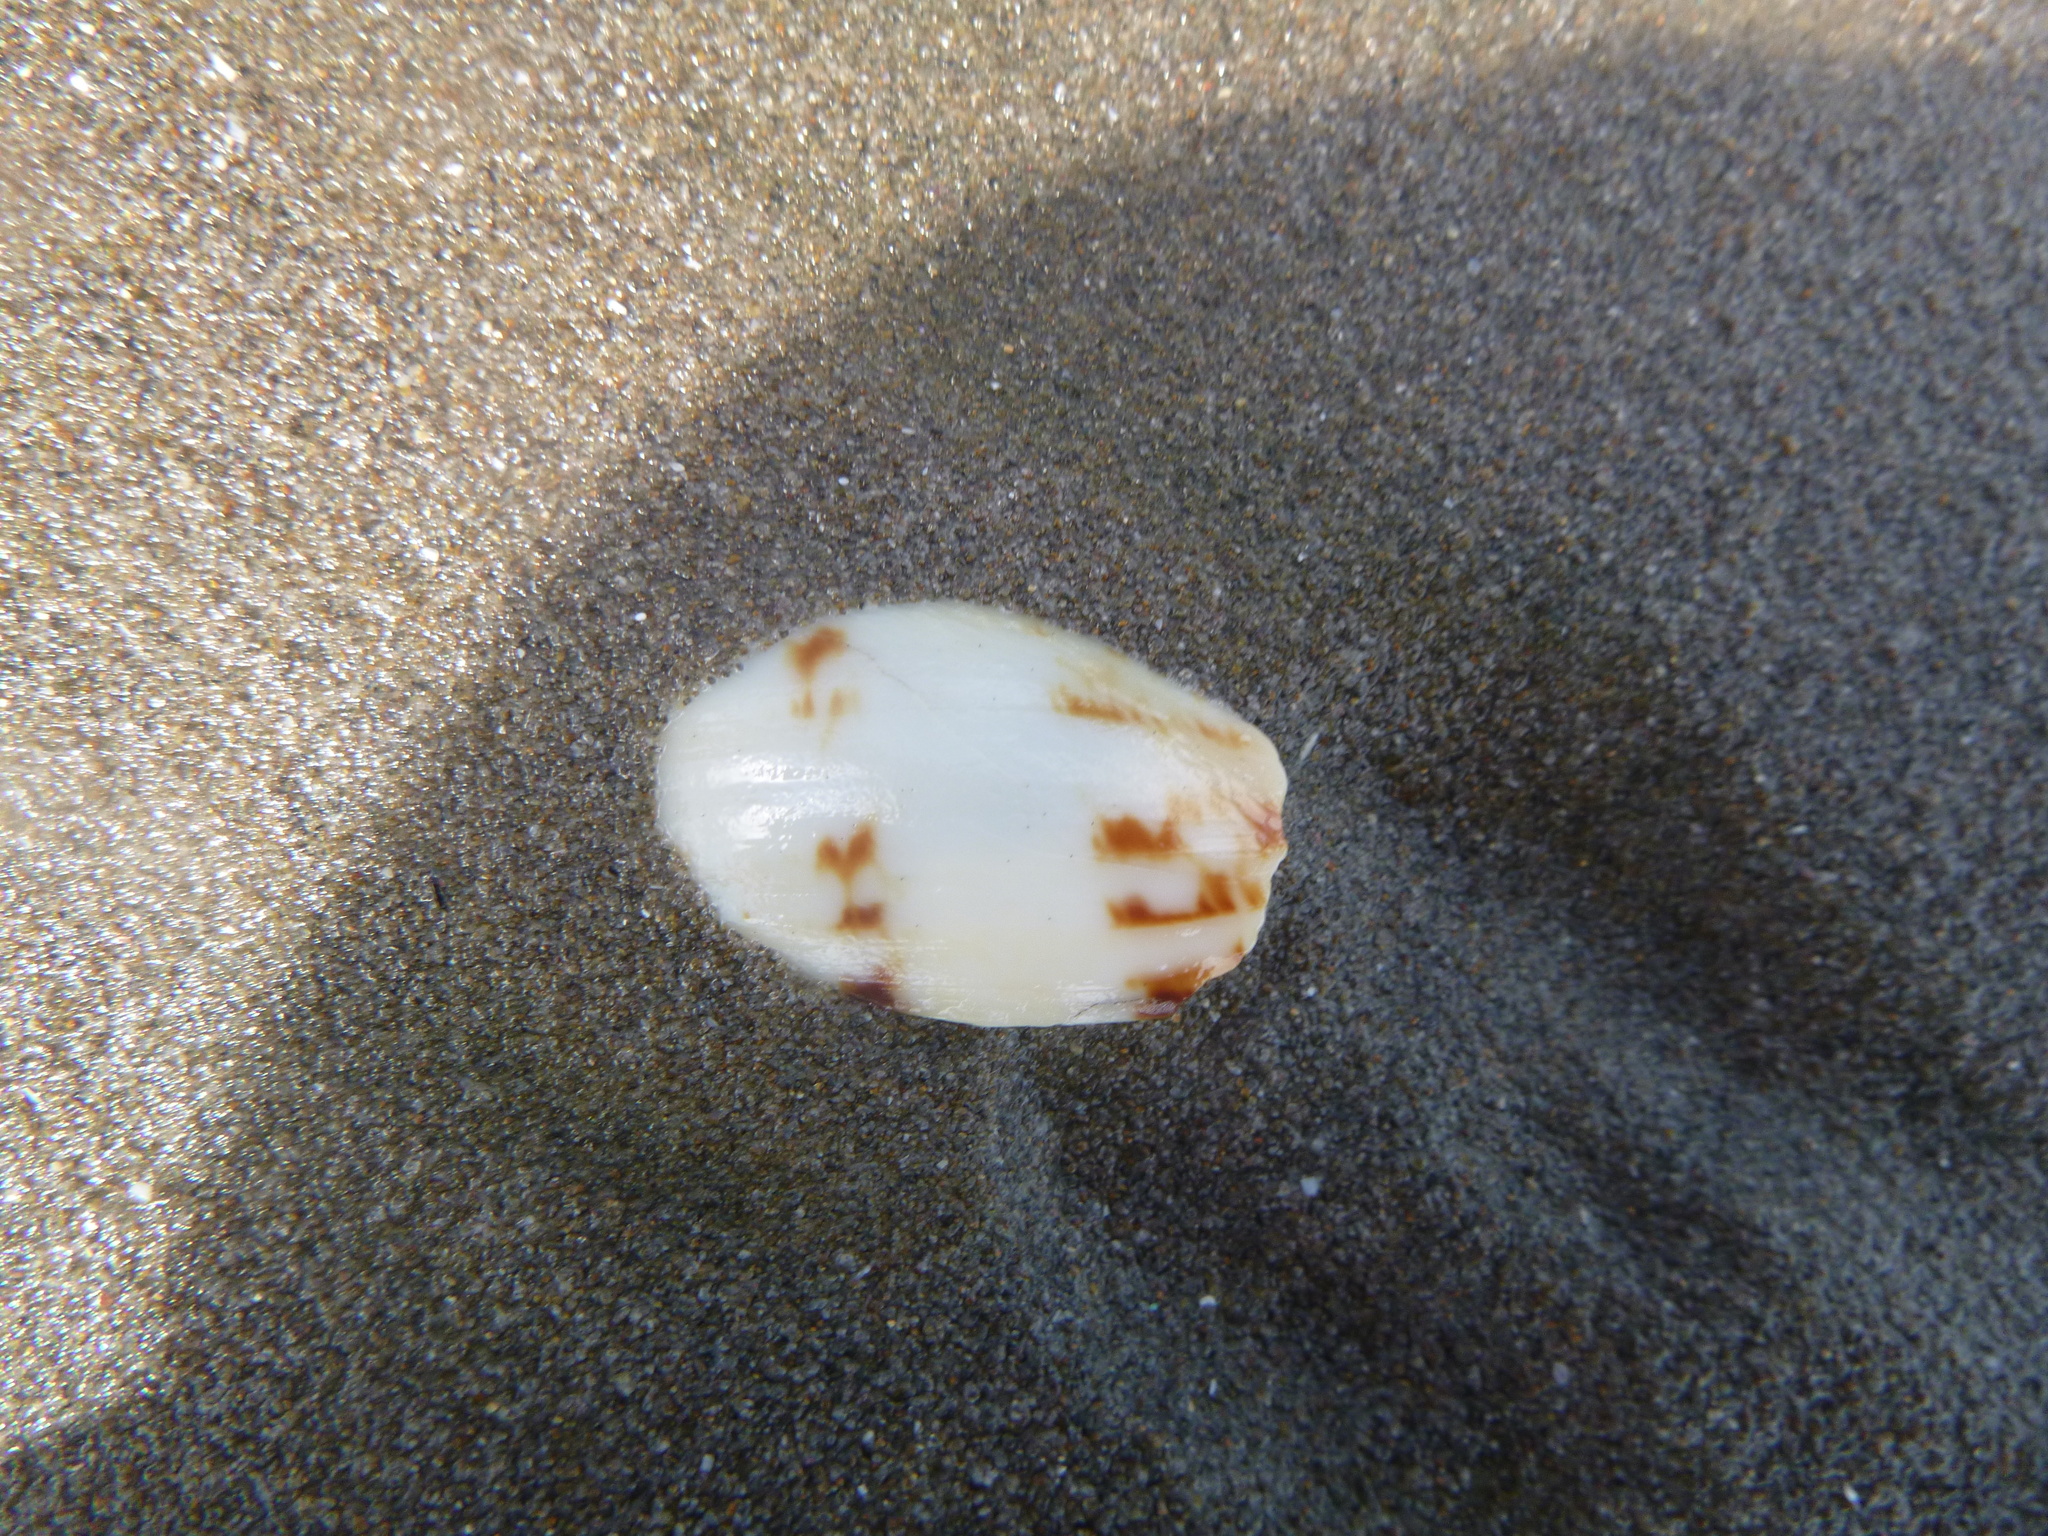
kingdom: Animalia
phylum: Mollusca
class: Gastropoda
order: Neogastropoda
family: Volutidae
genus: Alcithoe
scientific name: Alcithoe arabica
